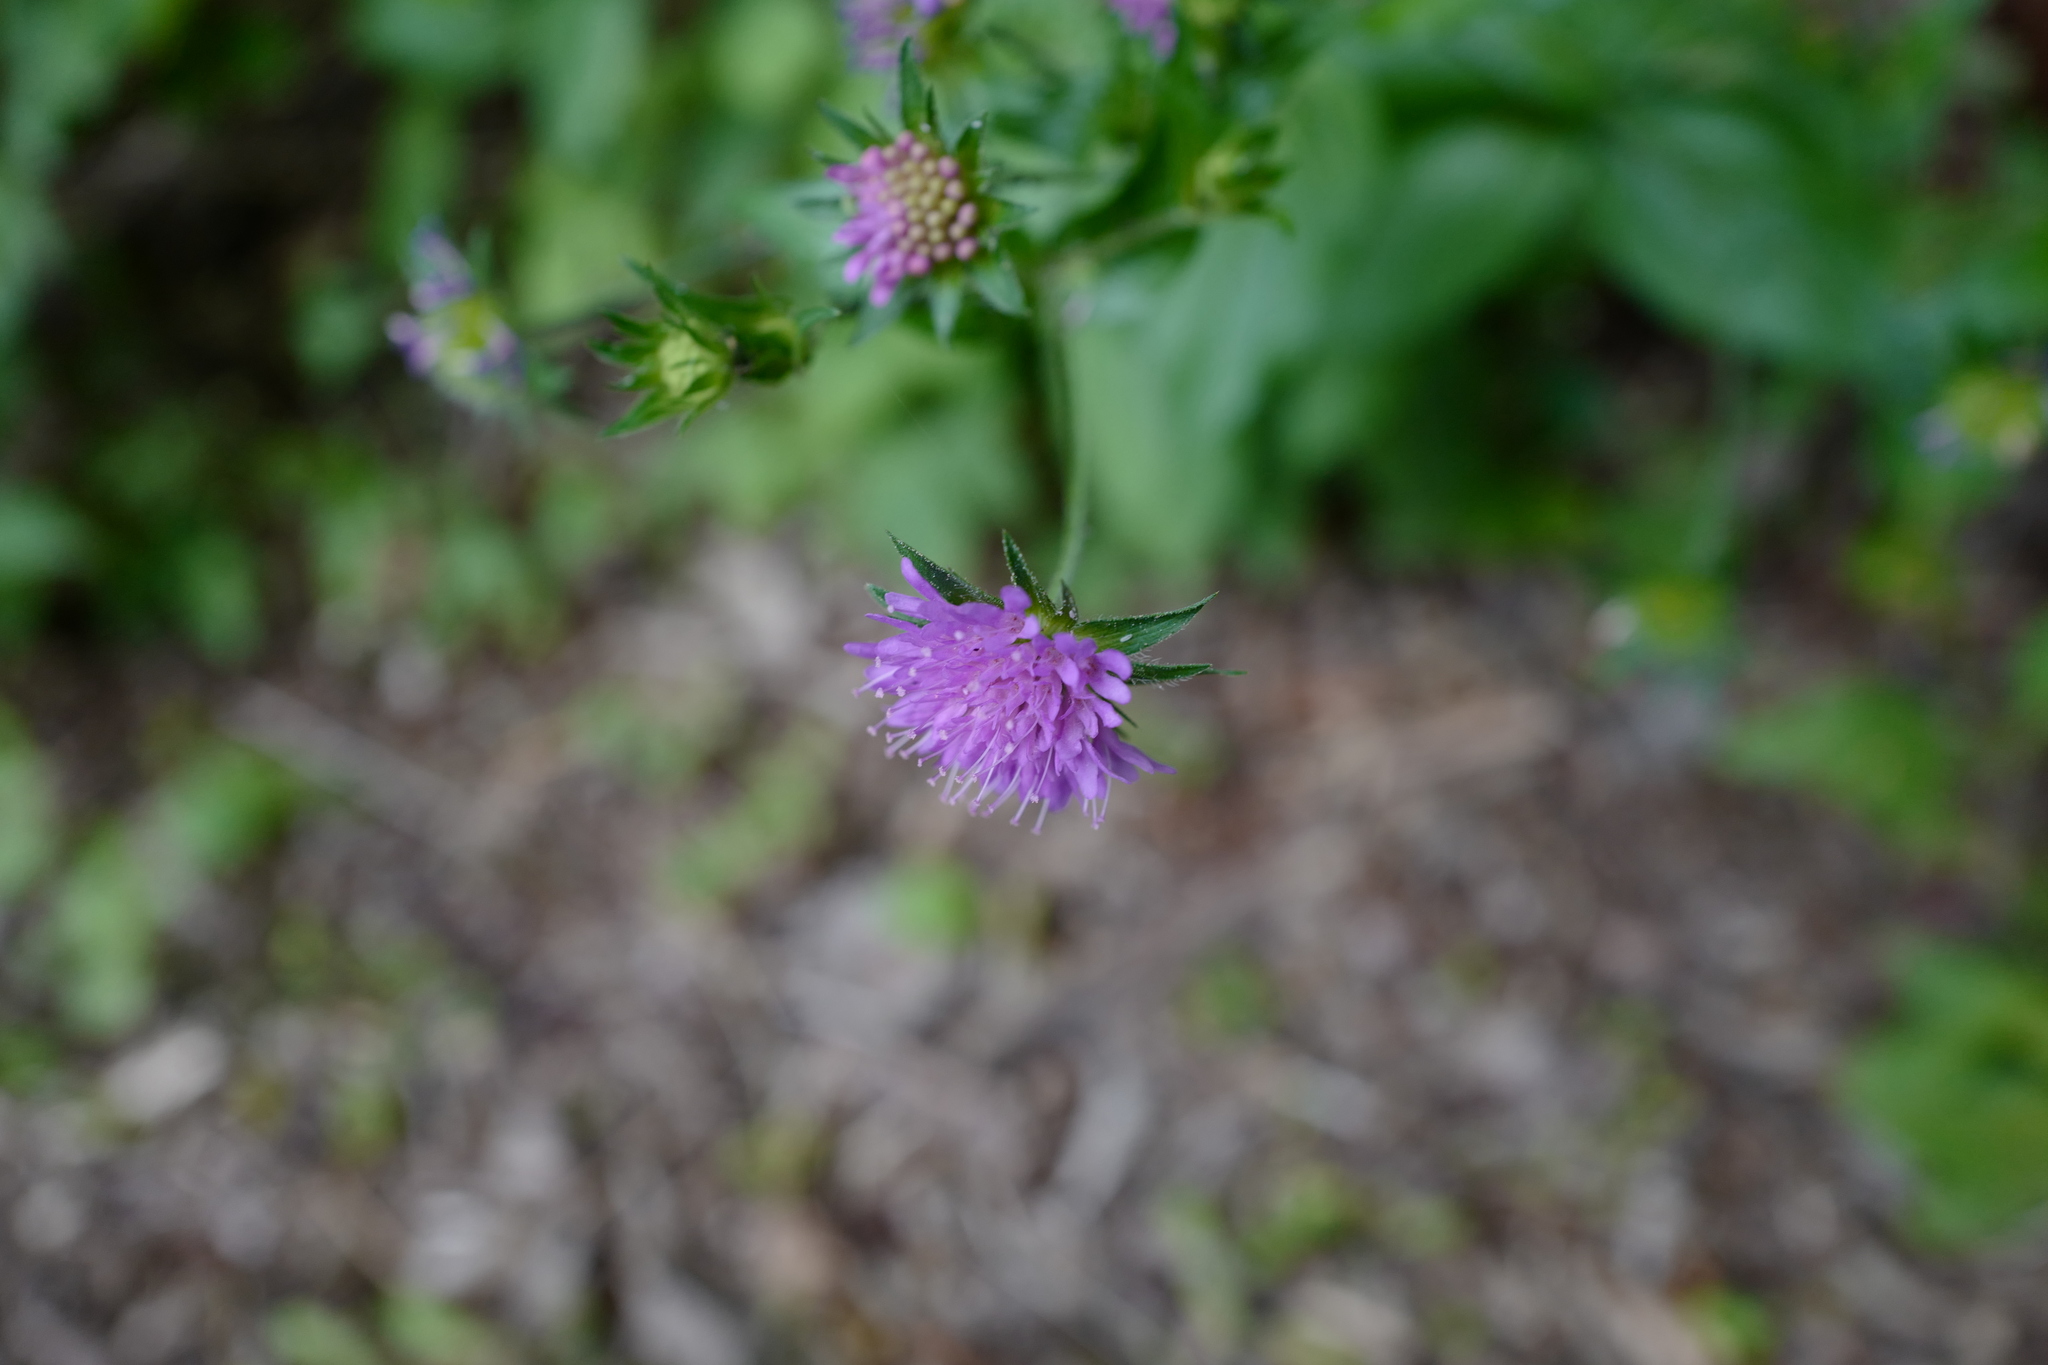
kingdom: Plantae
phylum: Tracheophyta
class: Magnoliopsida
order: Dipsacales
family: Caprifoliaceae
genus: Knautia
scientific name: Knautia drymeia
